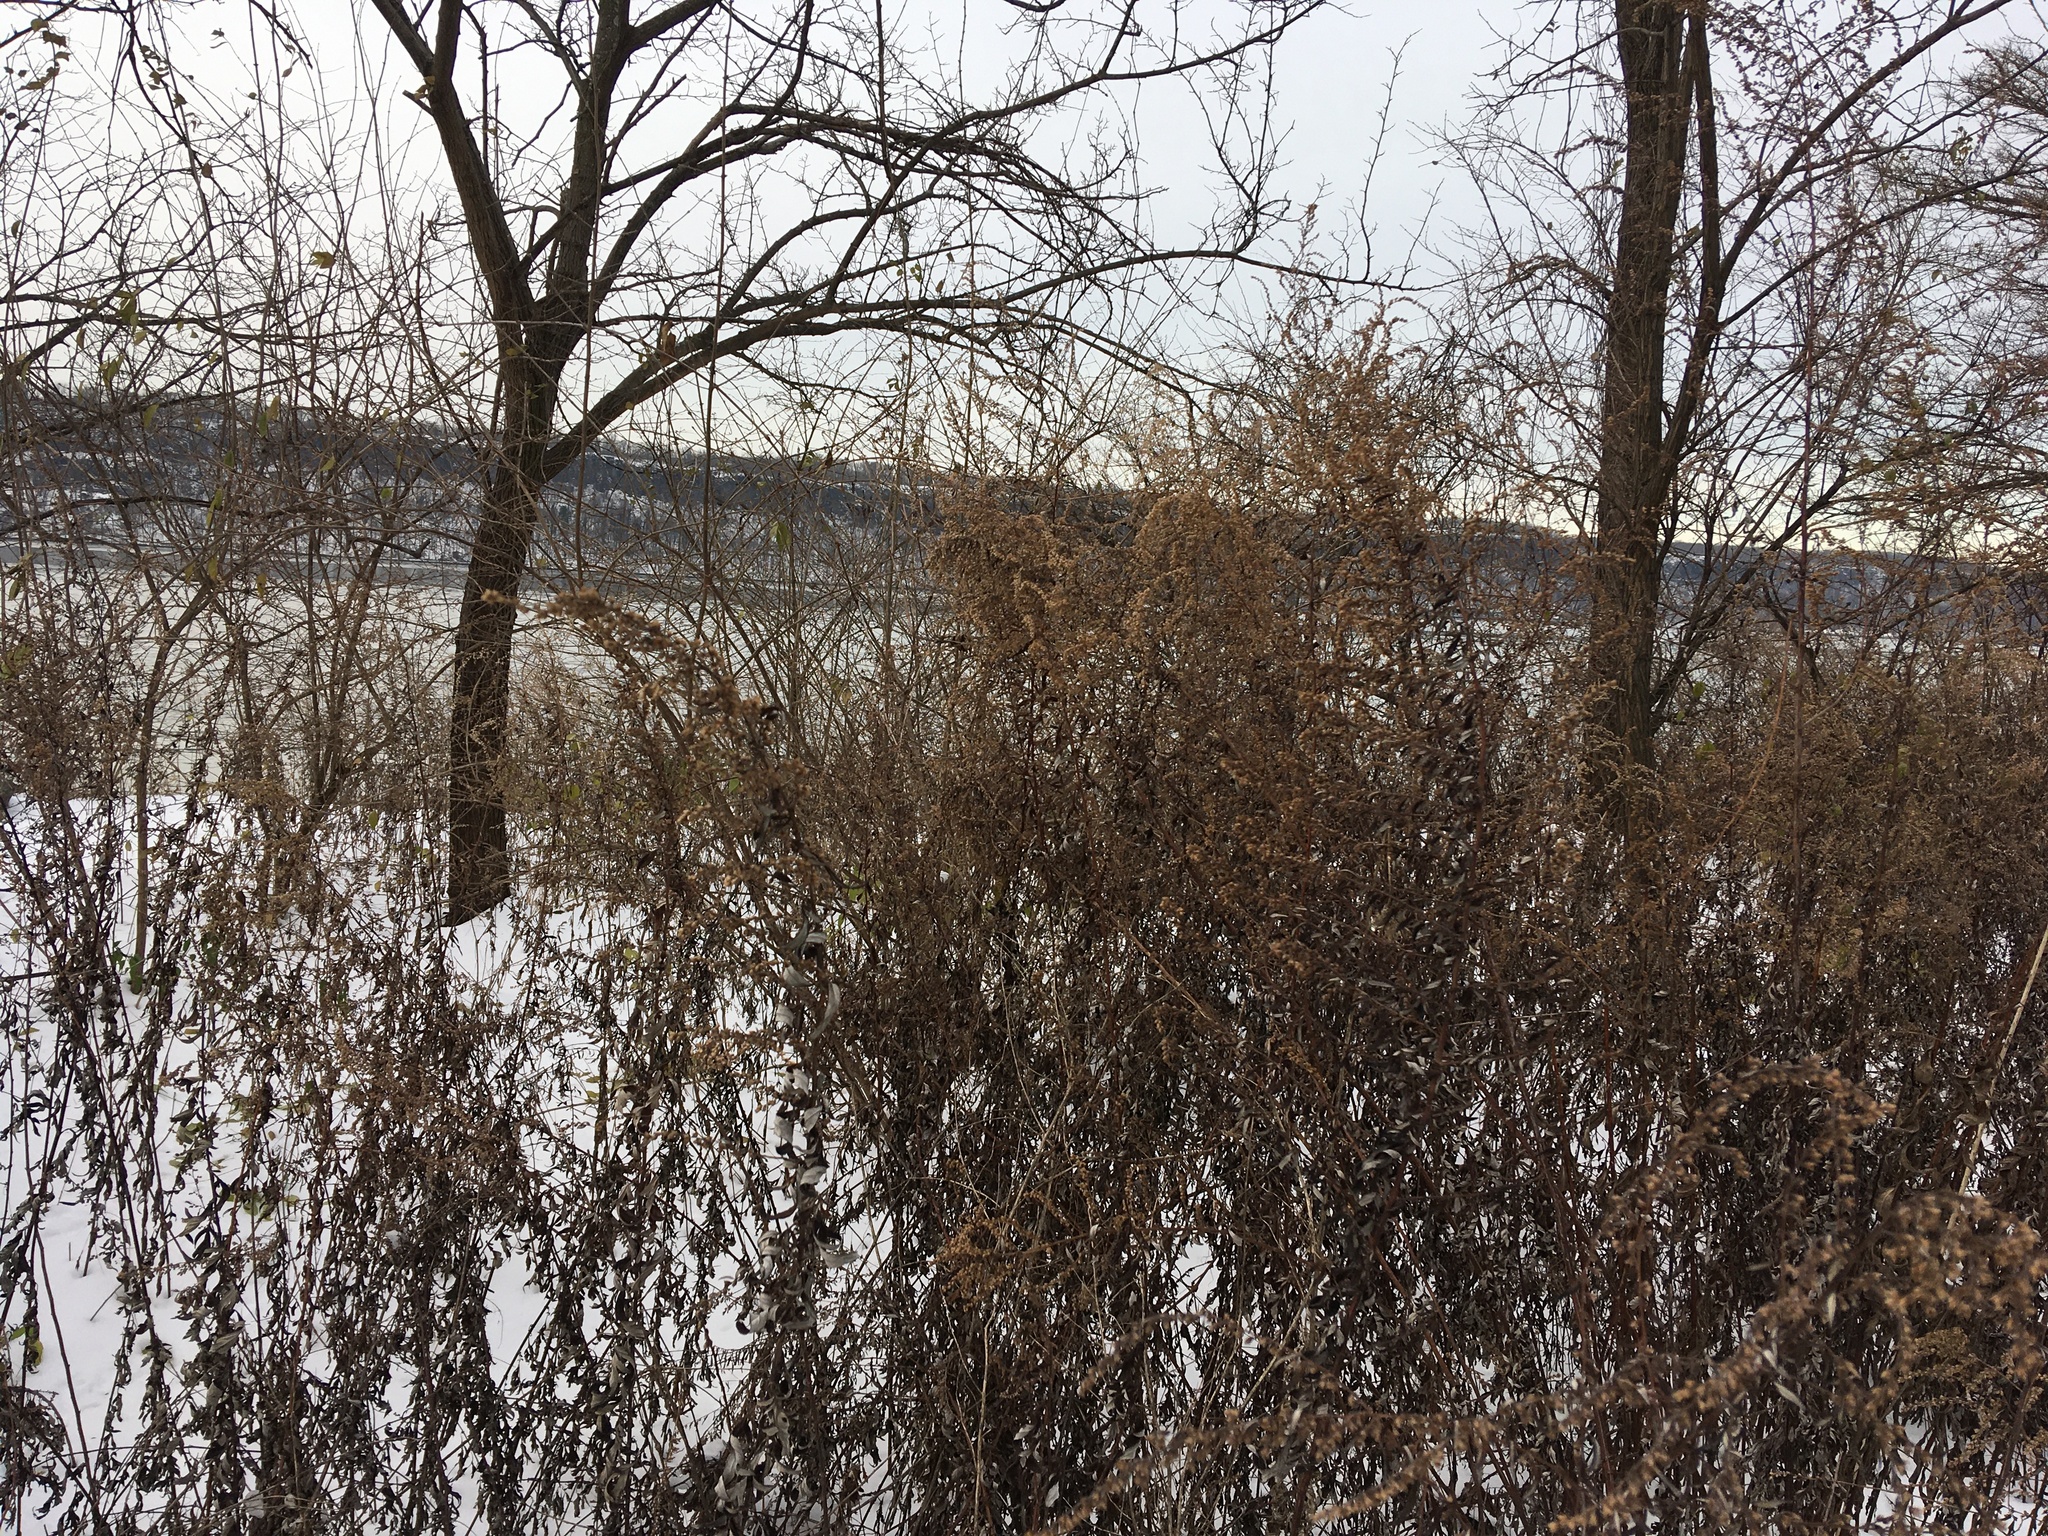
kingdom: Plantae
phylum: Tracheophyta
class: Magnoliopsida
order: Asterales
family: Asteraceae
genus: Artemisia
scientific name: Artemisia vulgaris
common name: Mugwort
